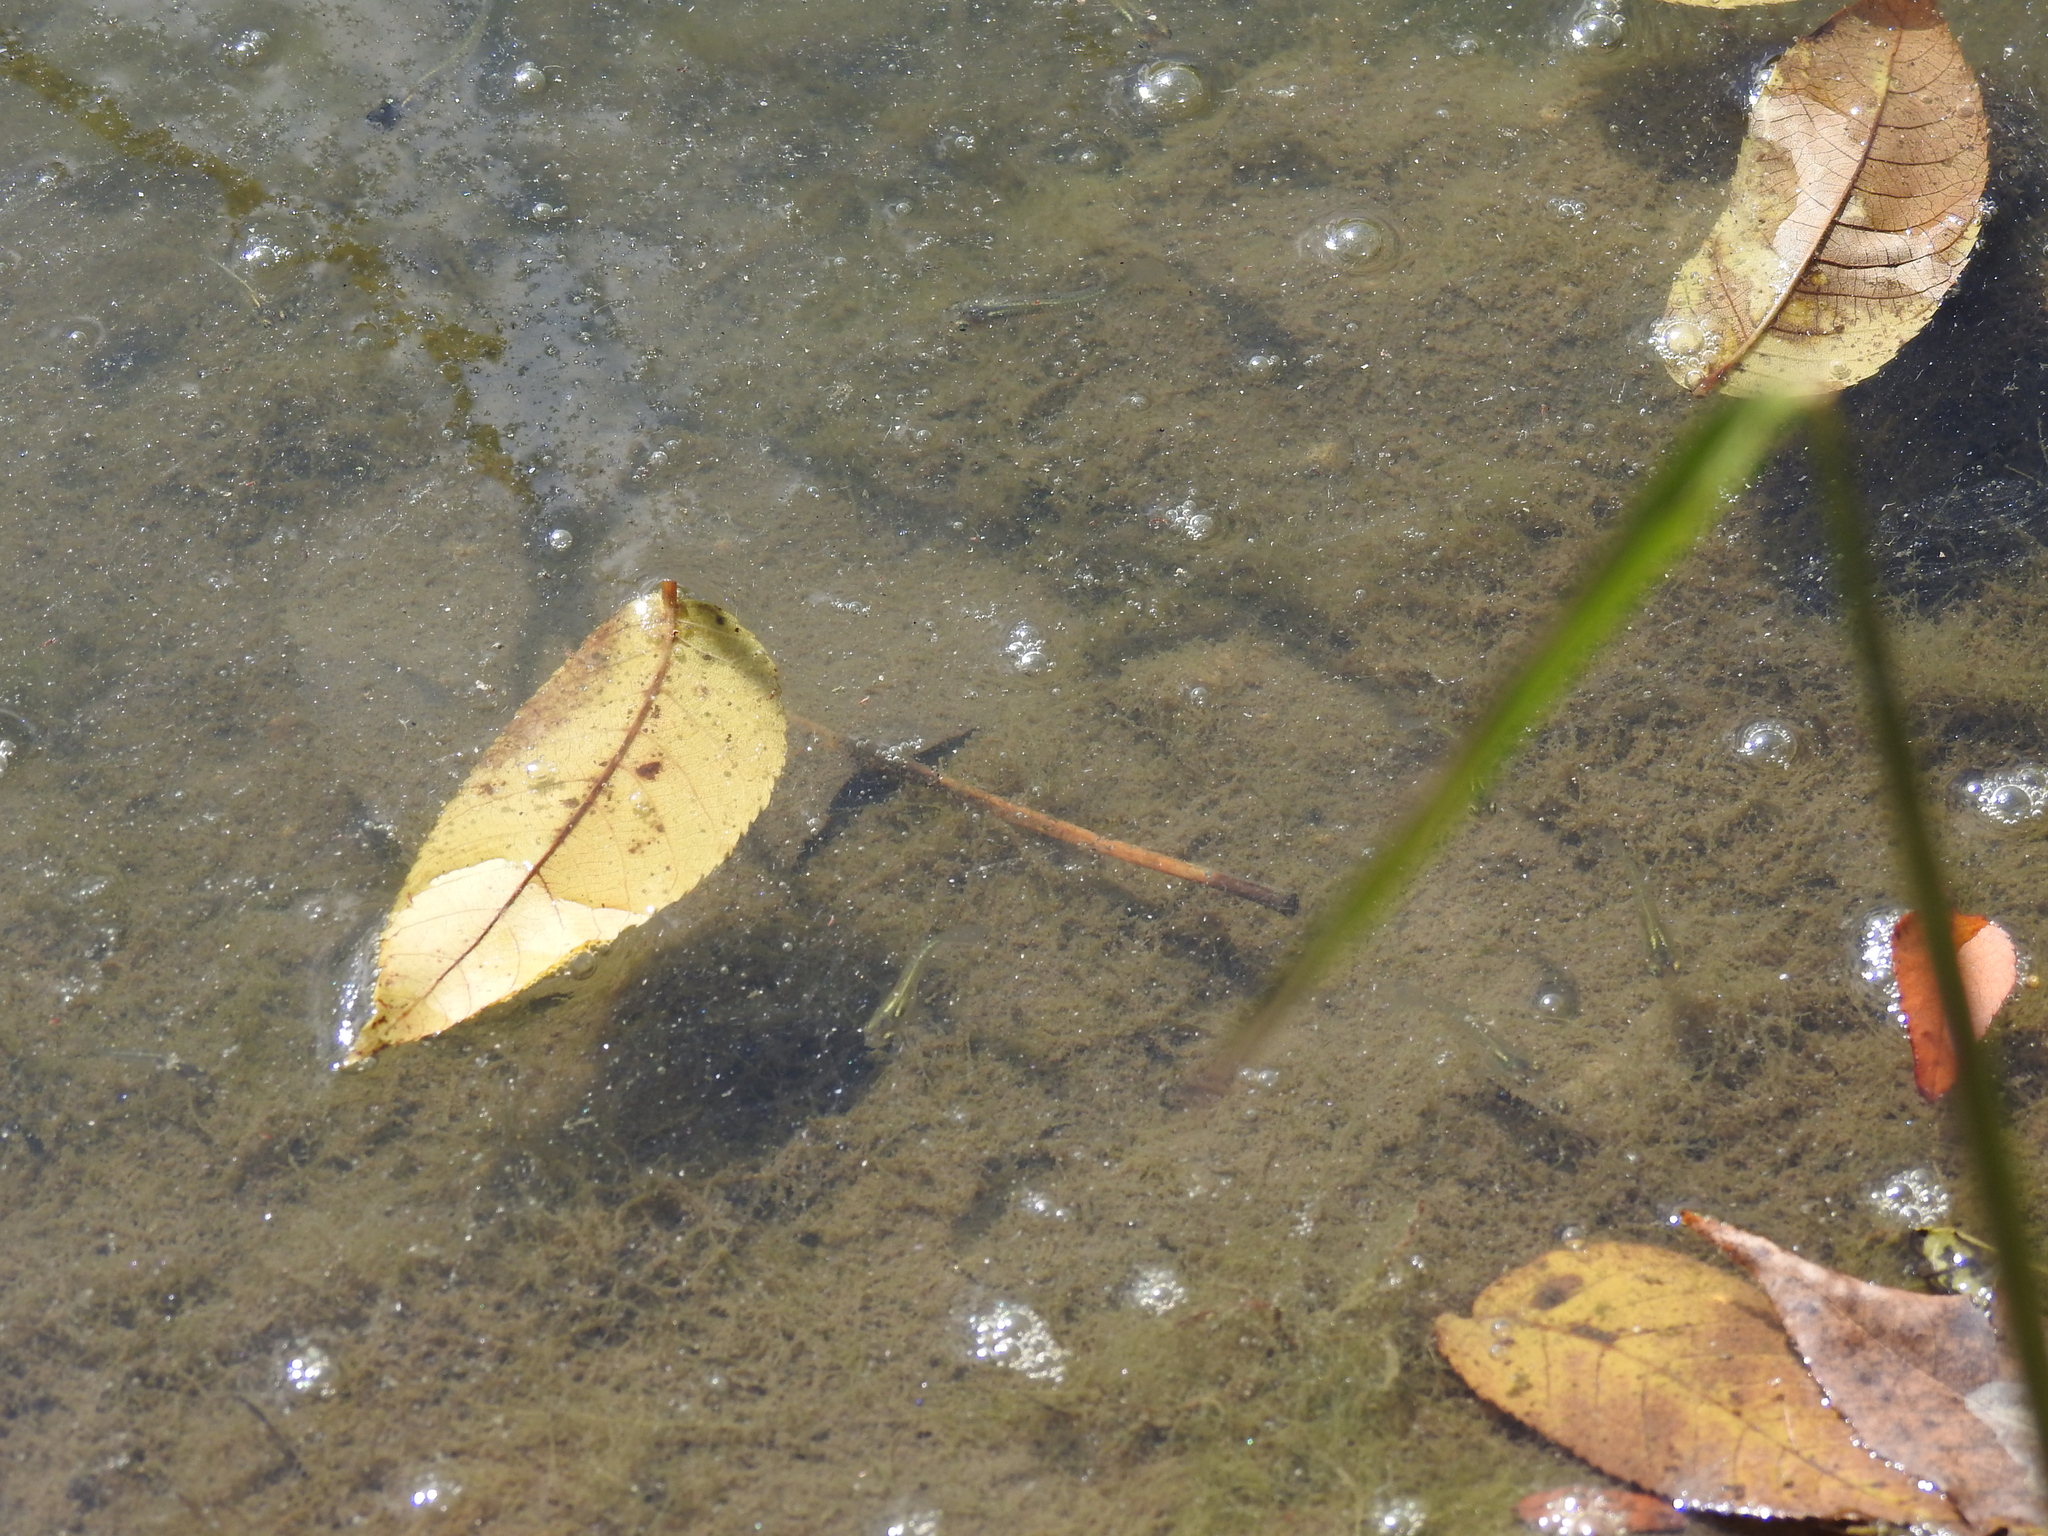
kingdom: Animalia
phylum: Chordata
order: Cyprinodontiformes
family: Poeciliidae
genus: Gambusia
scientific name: Gambusia affinis
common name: Mosquitofish
